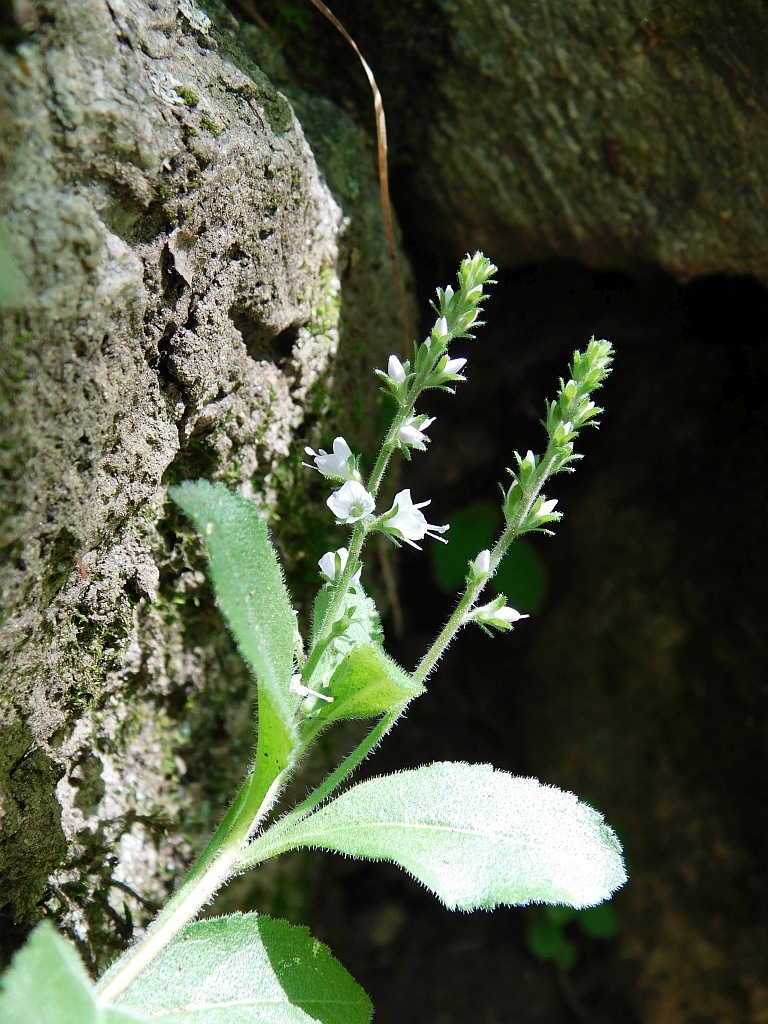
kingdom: Plantae
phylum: Tracheophyta
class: Magnoliopsida
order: Lamiales
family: Plantaginaceae
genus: Veronica
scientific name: Veronica officinalis
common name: Common speedwell
